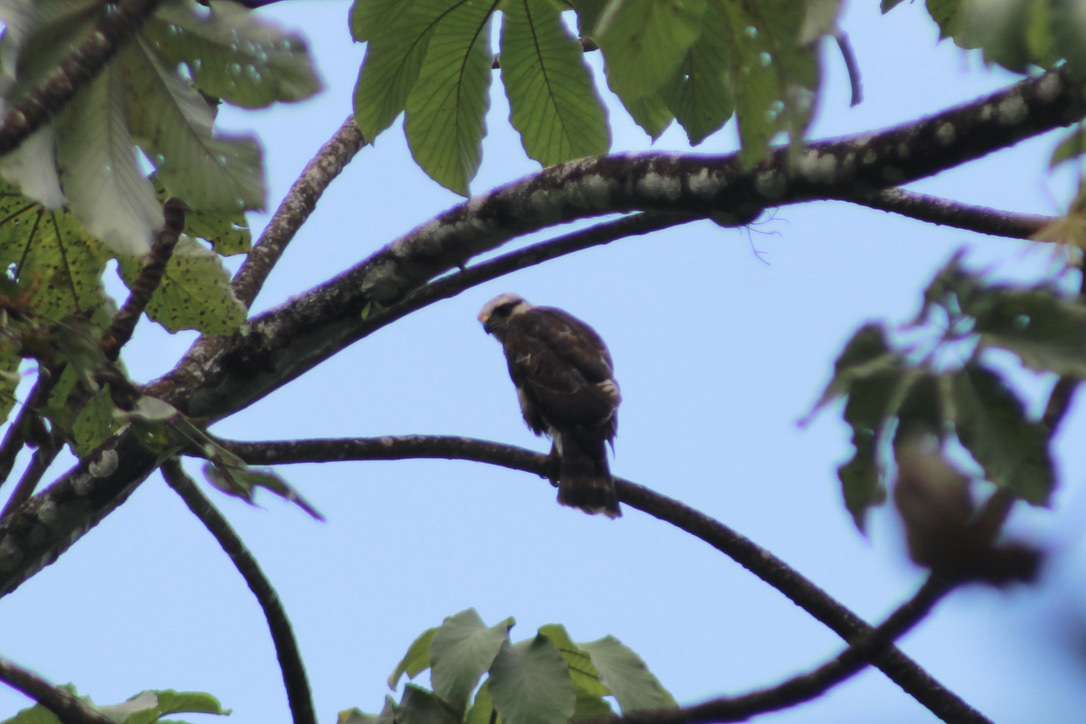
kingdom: Animalia
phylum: Chordata
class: Aves
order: Accipitriformes
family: Accipitridae
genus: Buteo
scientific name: Buteo nitidus
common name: Grey-lined hawk
